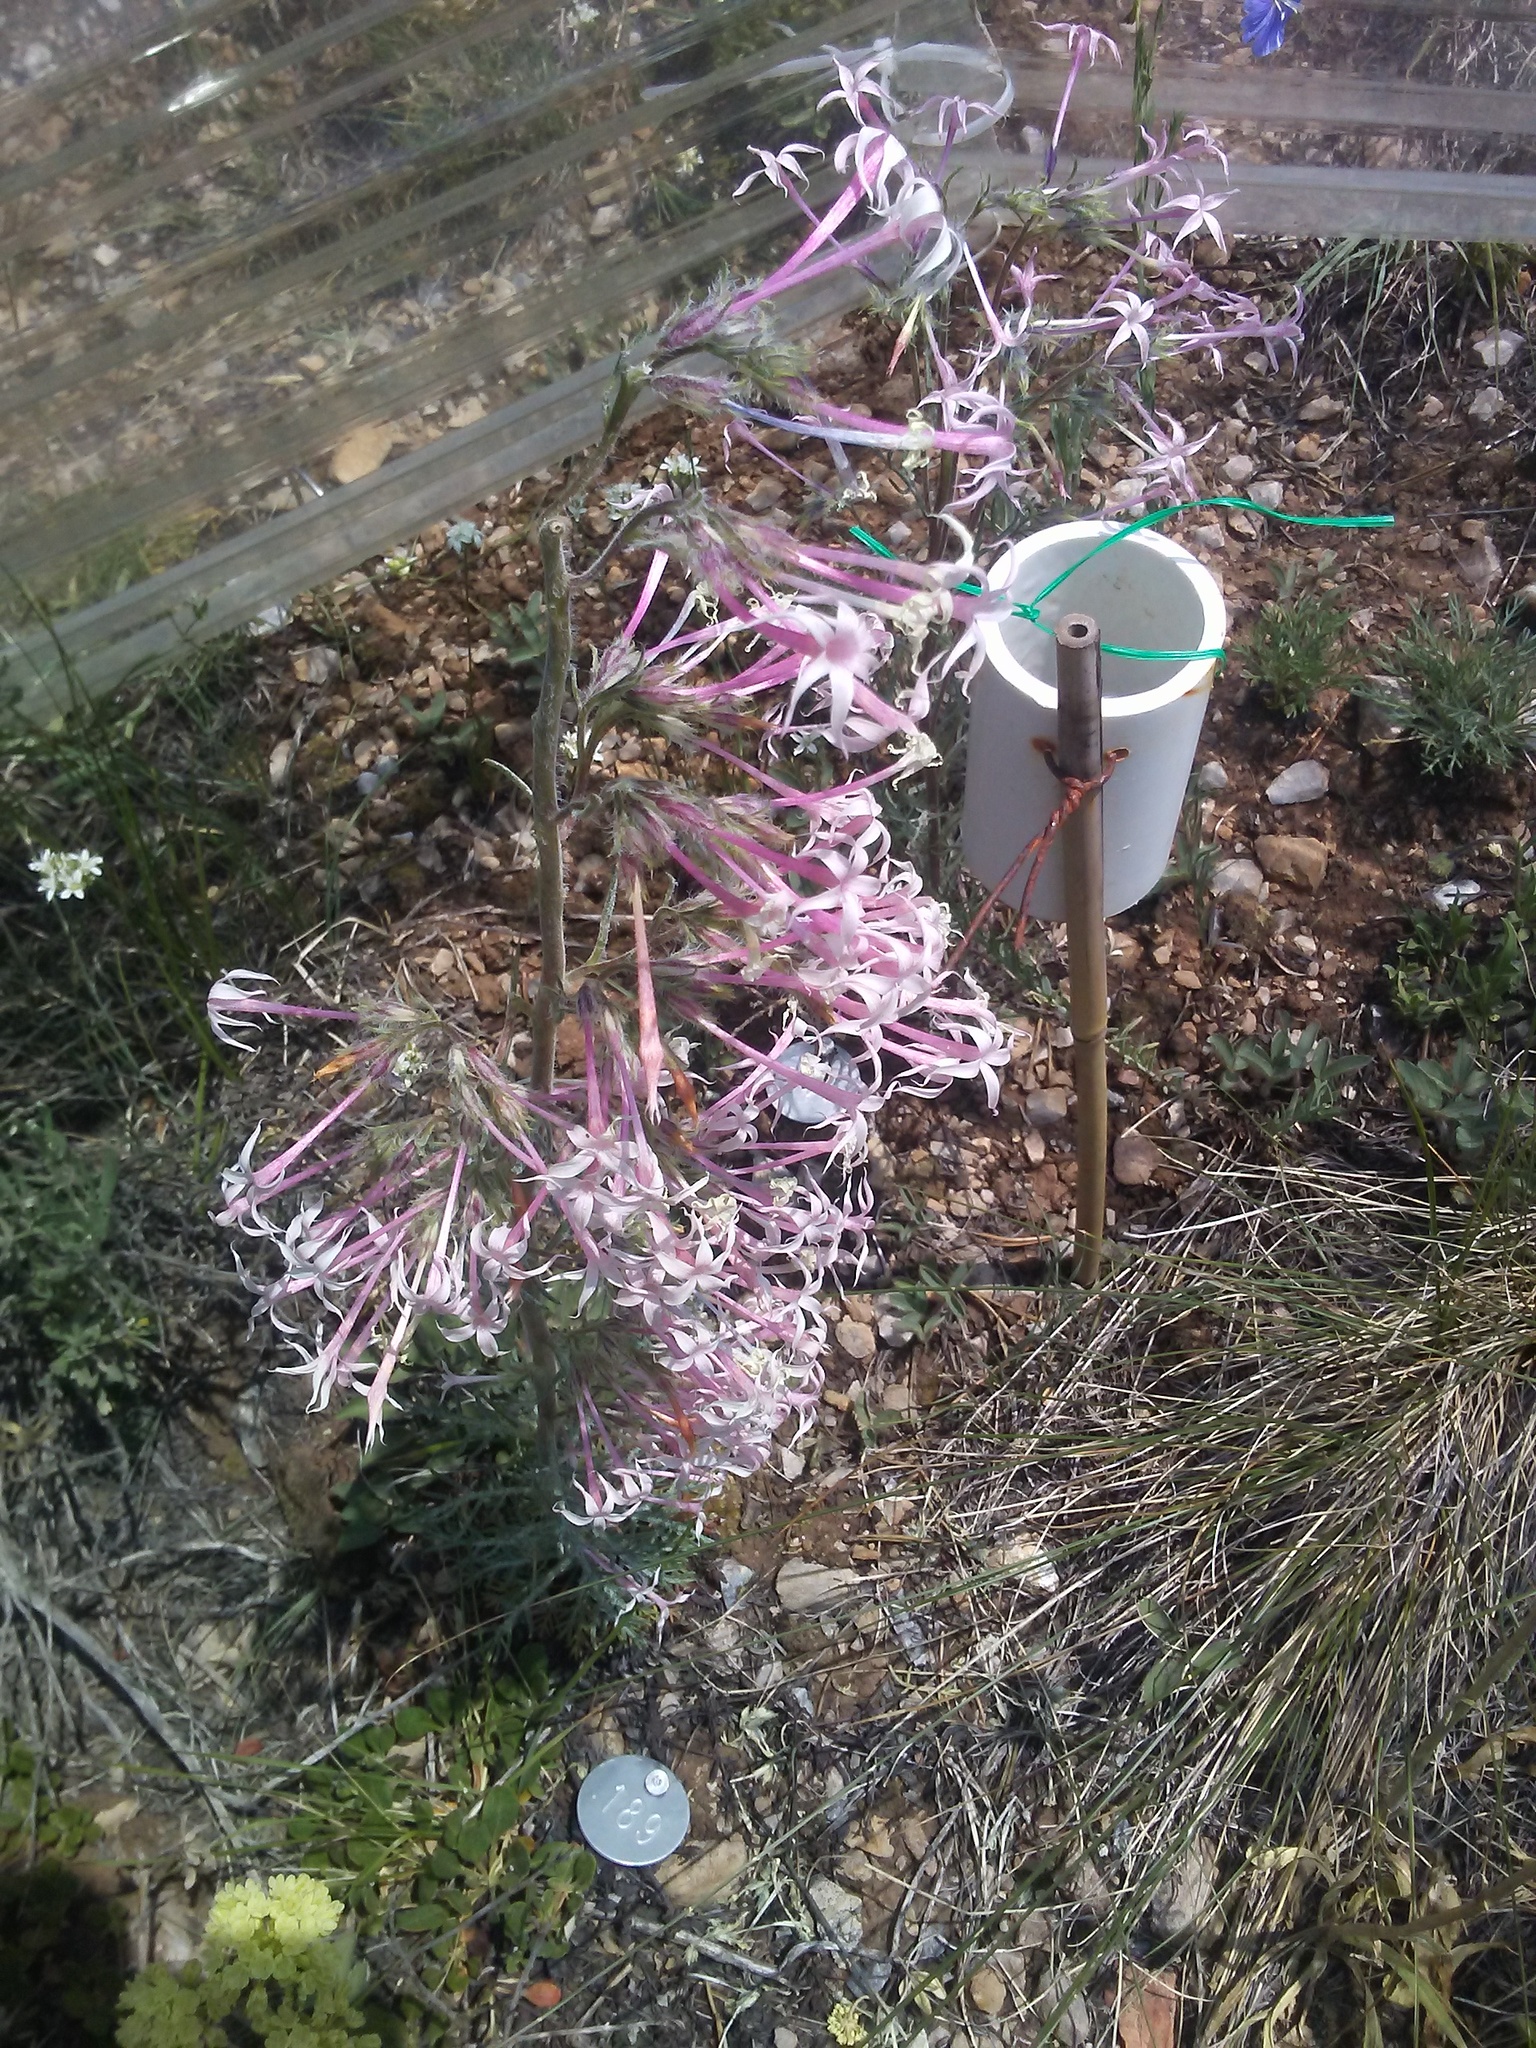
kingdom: Plantae
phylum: Tracheophyta
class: Magnoliopsida
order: Ericales
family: Polemoniaceae
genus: Ipomopsis
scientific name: Ipomopsis tenuituba
